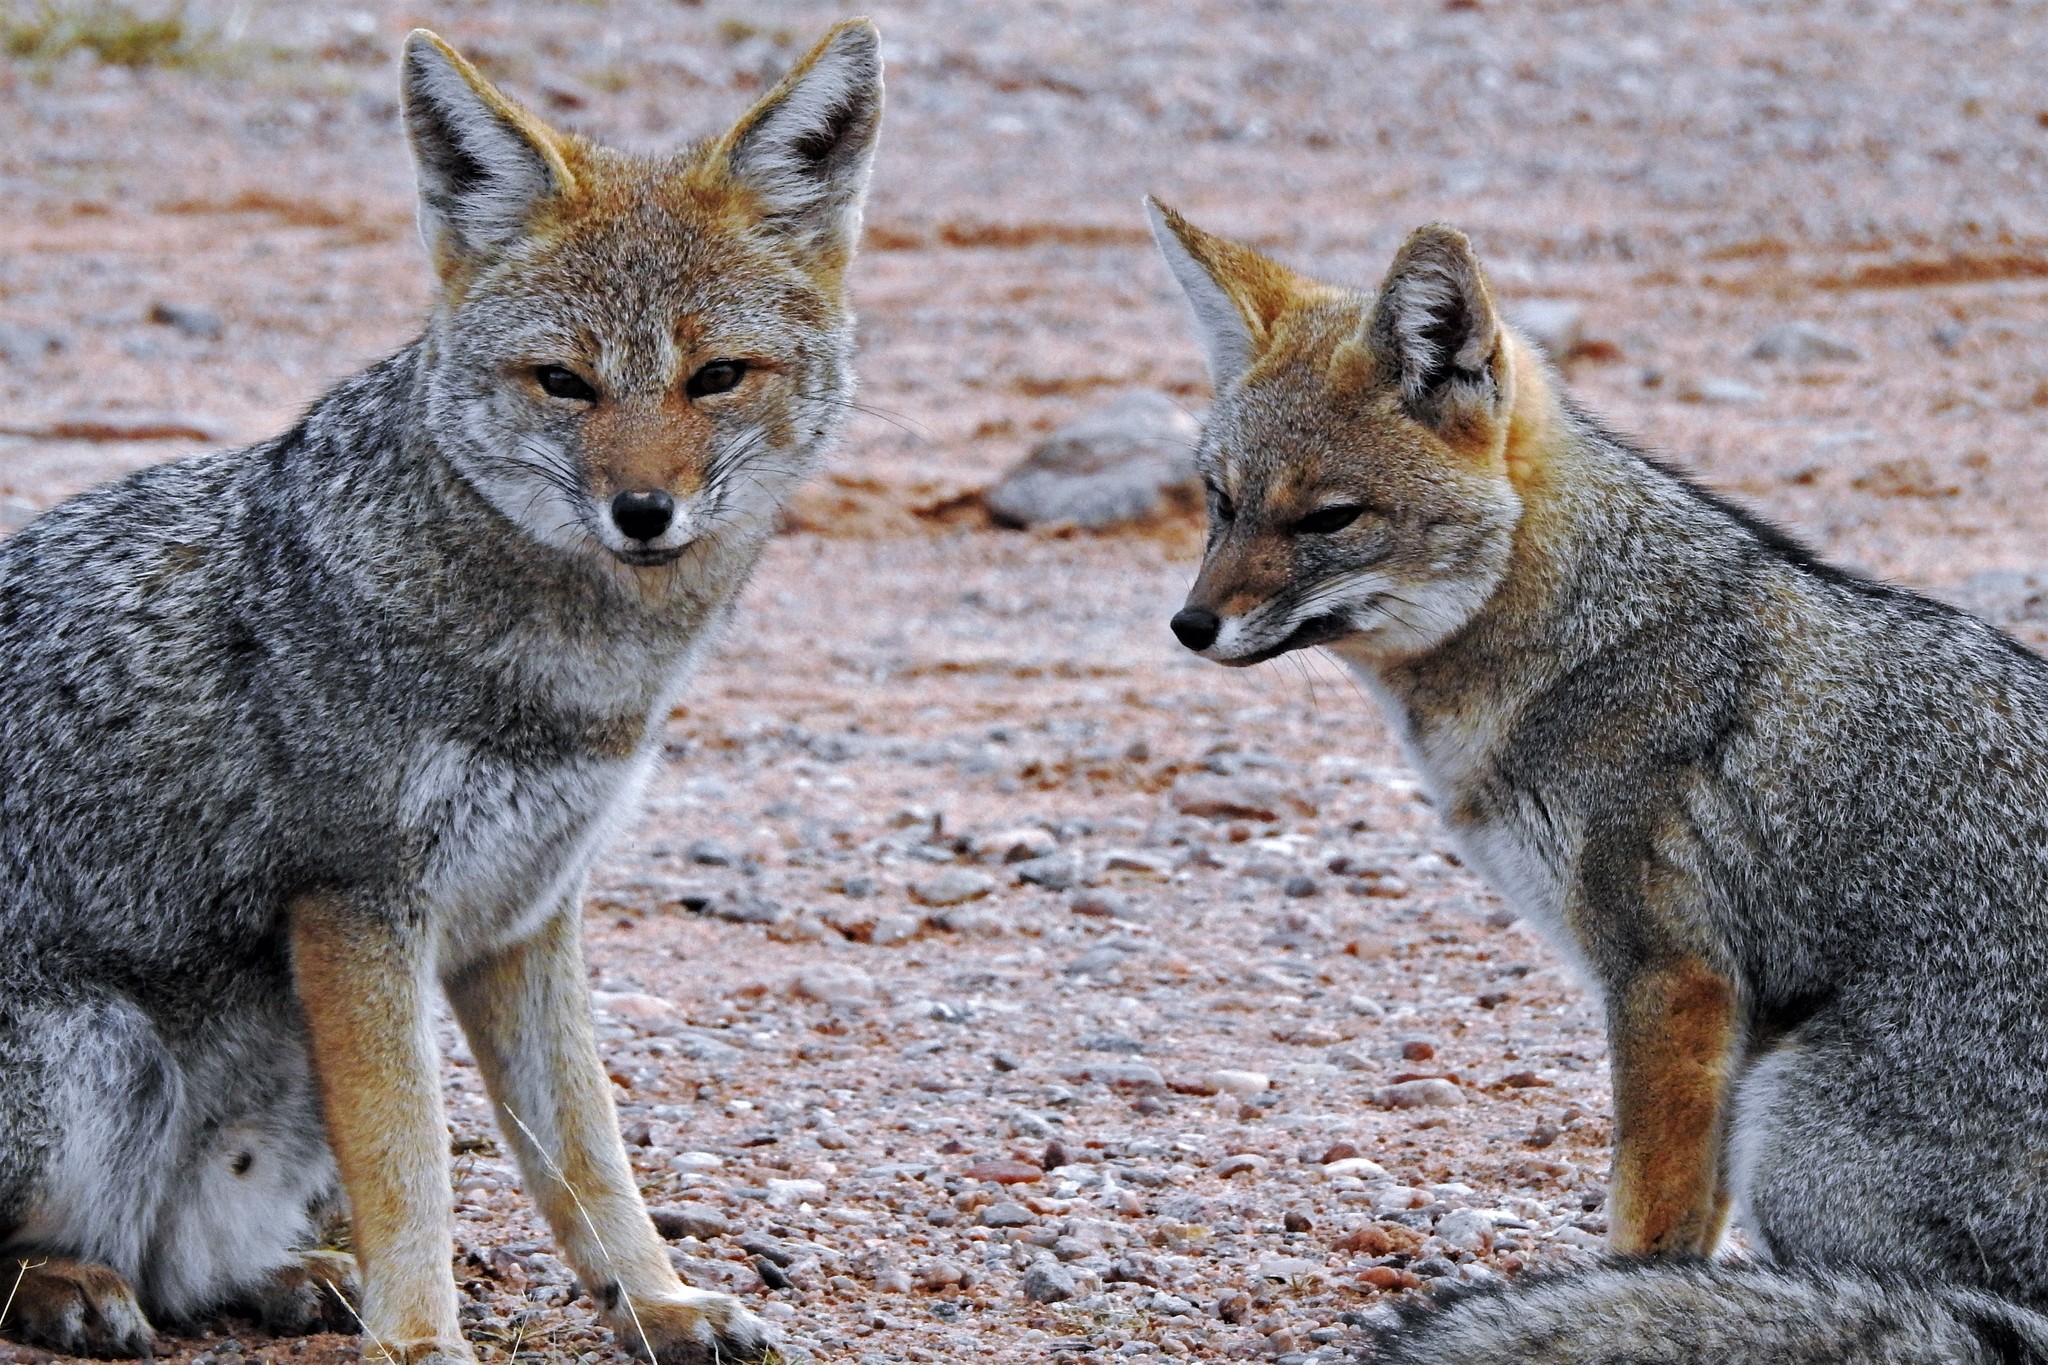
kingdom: Animalia
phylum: Chordata
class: Mammalia
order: Carnivora
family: Canidae
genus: Lycalopex
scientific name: Lycalopex gymnocercus
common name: Pampas fox
